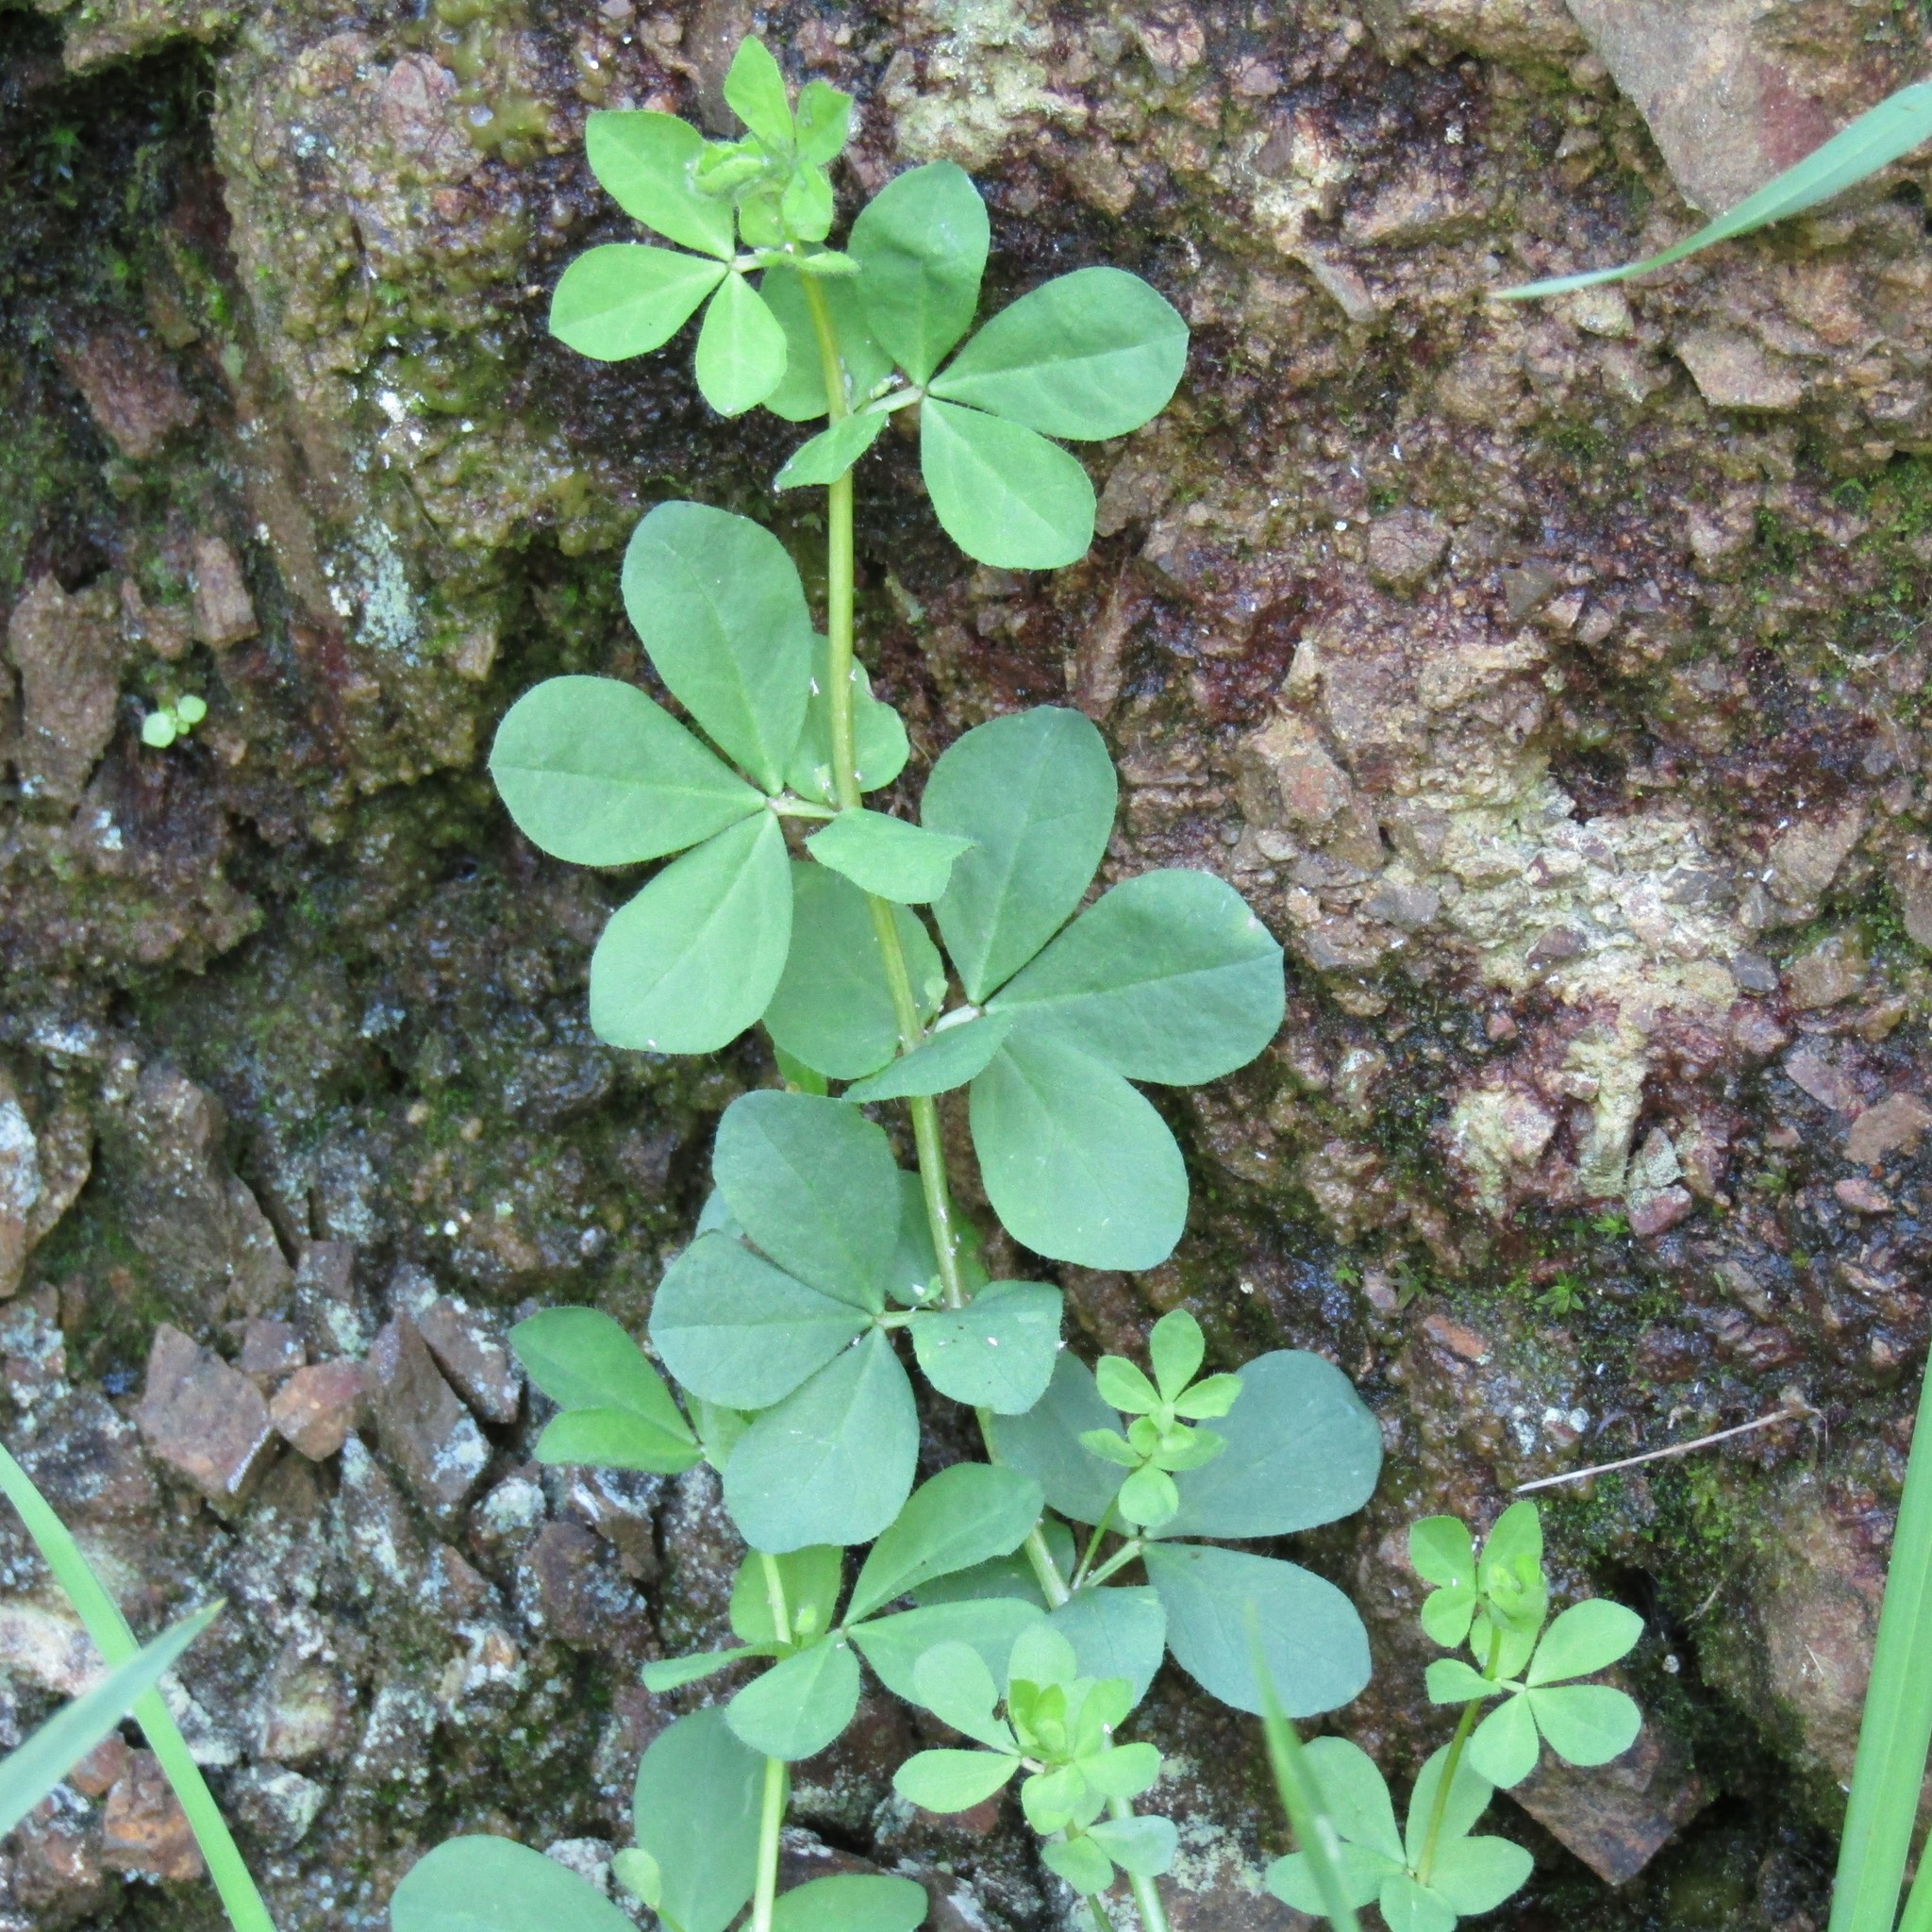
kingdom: Plantae
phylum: Tracheophyta
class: Magnoliopsida
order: Fabales
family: Fabaceae
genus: Lotus
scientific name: Lotus pedunculatus
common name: Greater birdsfoot-trefoil
